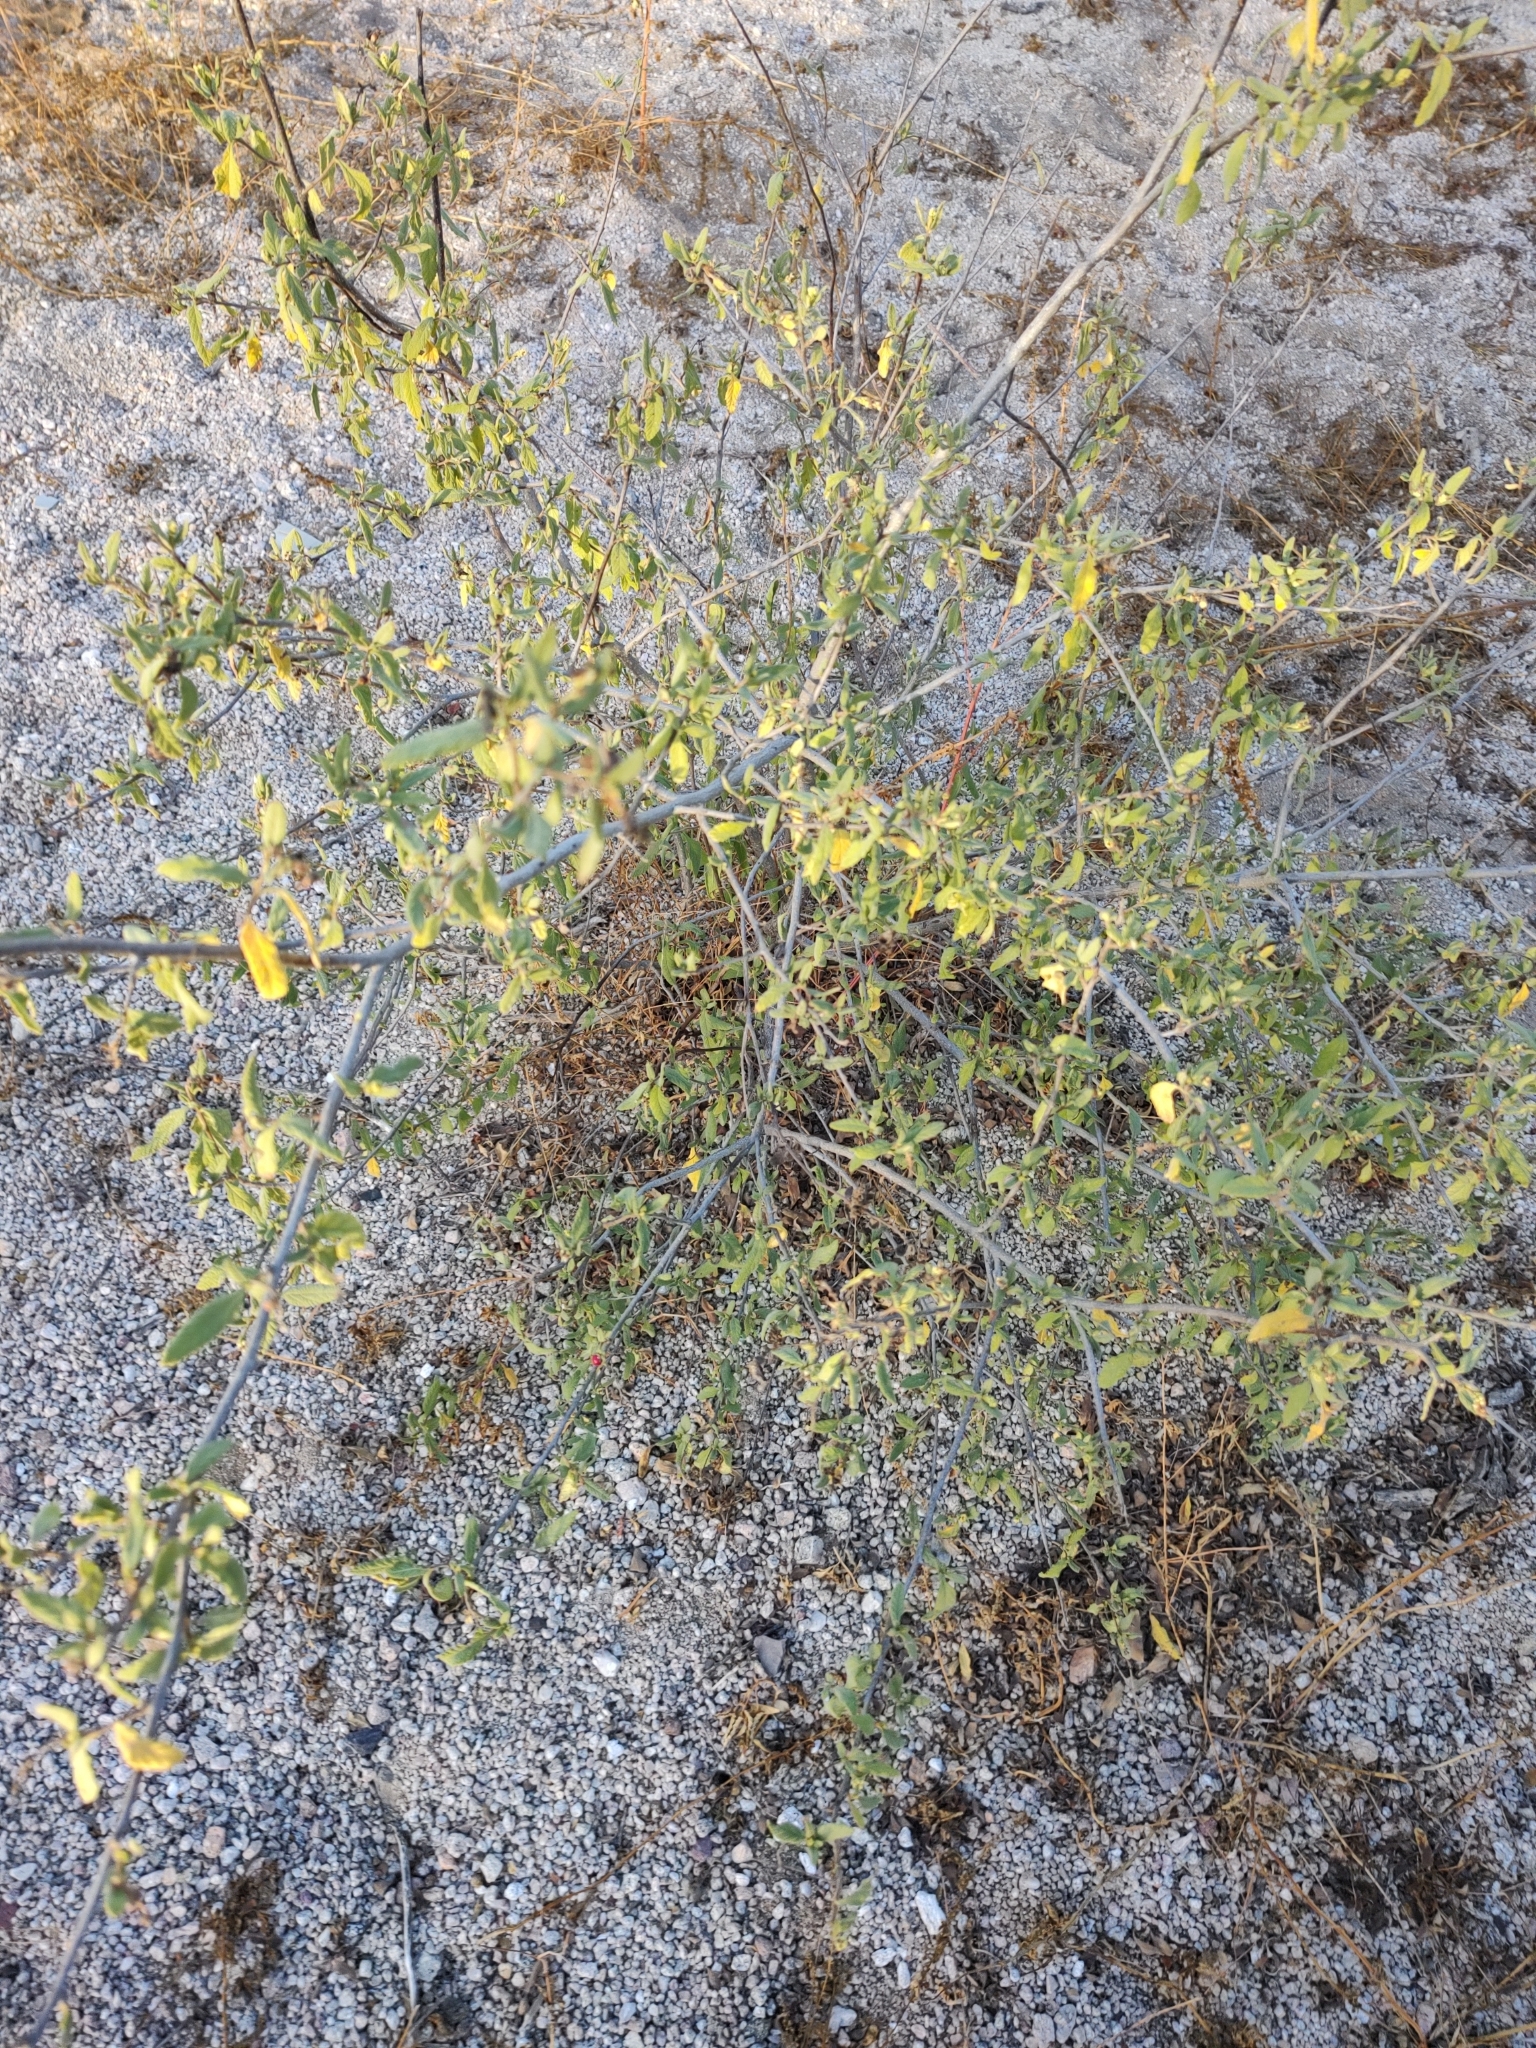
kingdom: Plantae
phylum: Tracheophyta
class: Magnoliopsida
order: Boraginales
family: Cordiaceae
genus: Varronia
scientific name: Varronia curassavica
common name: Black sage
